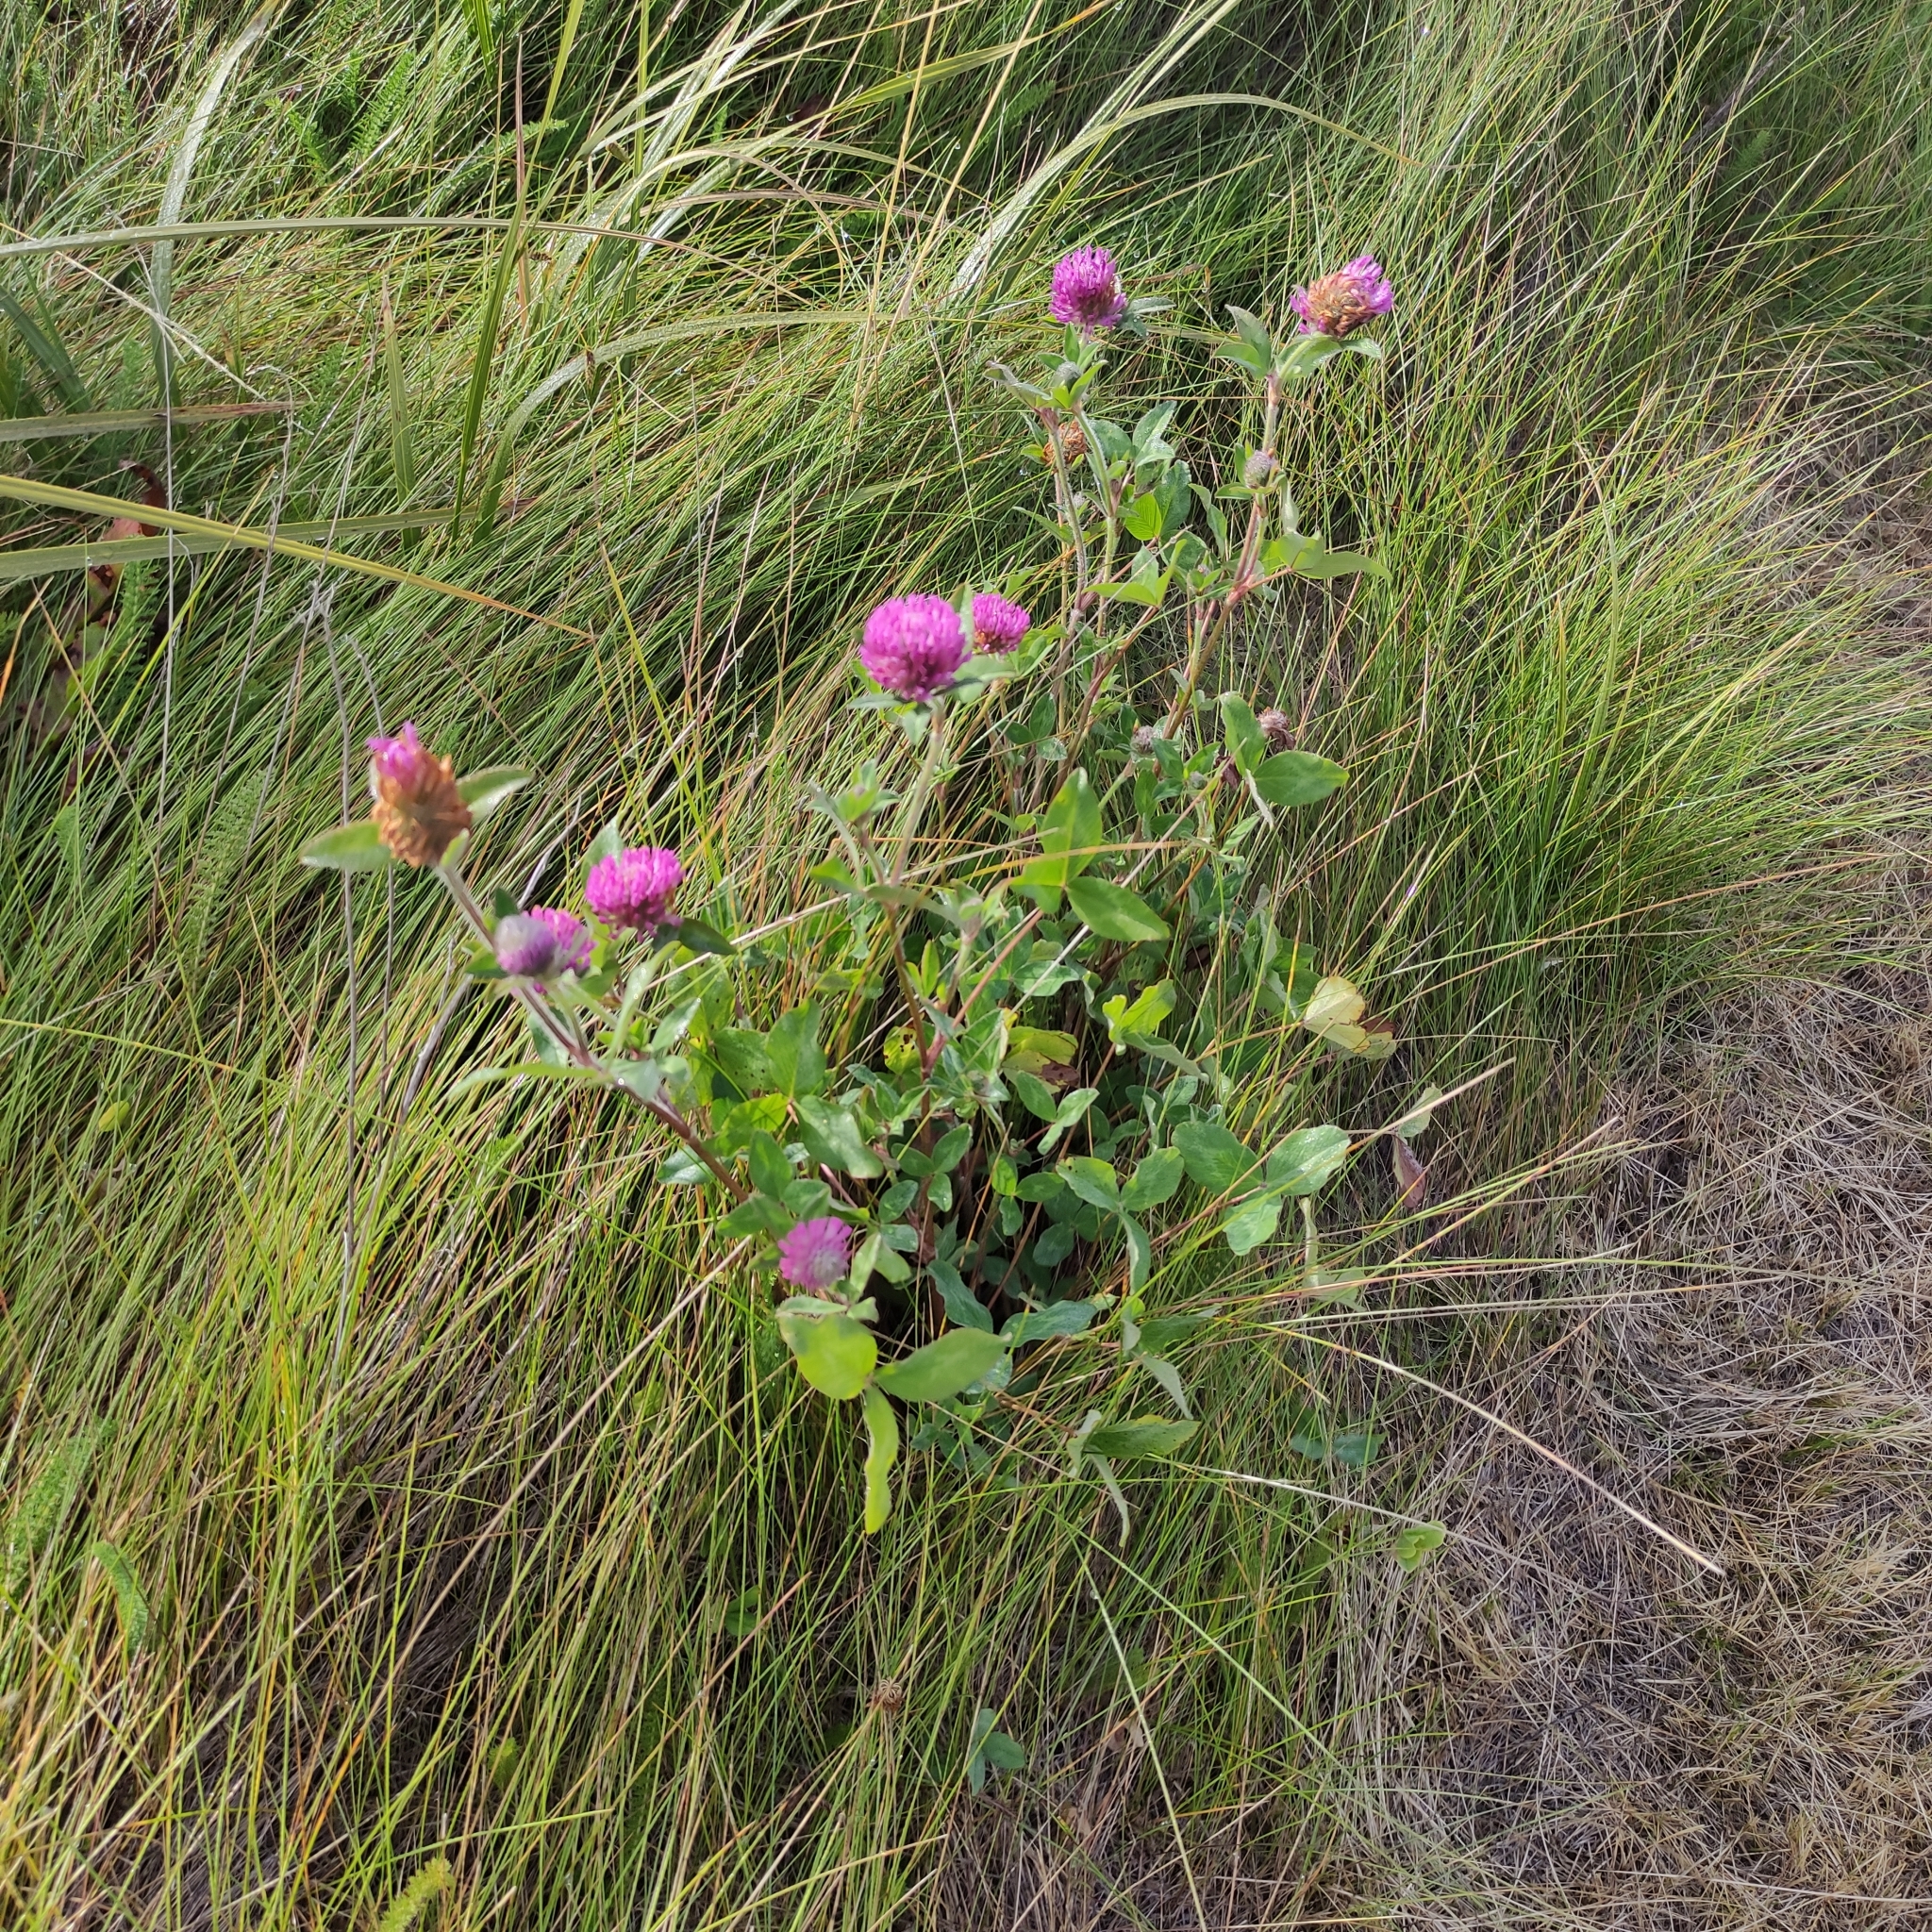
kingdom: Plantae
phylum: Tracheophyta
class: Magnoliopsida
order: Fabales
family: Fabaceae
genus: Trifolium
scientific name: Trifolium pratense
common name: Red clover
